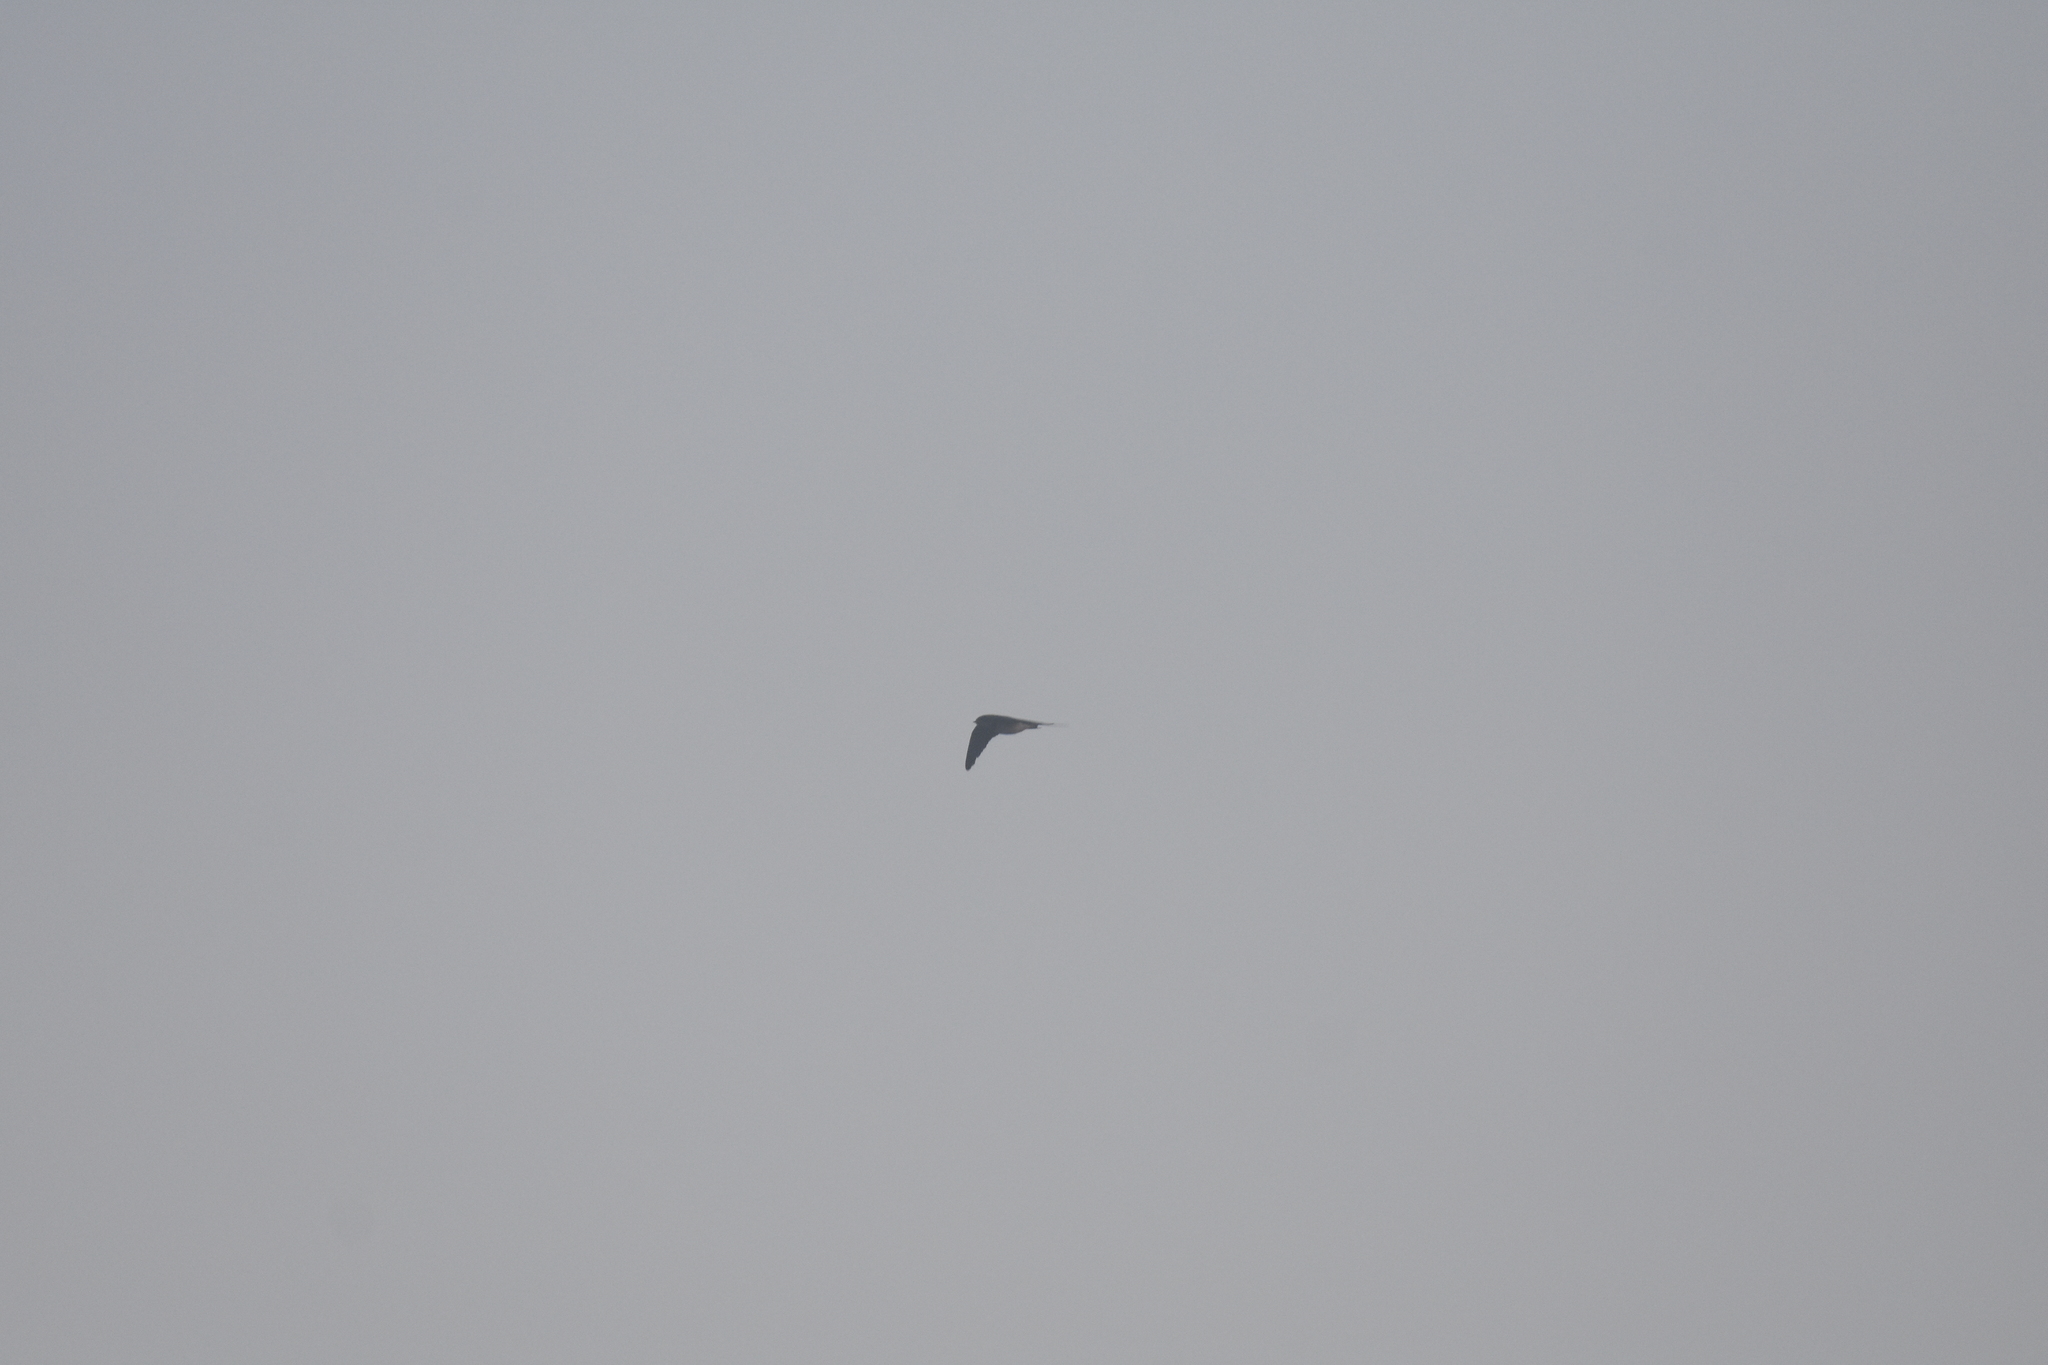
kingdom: Animalia
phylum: Chordata
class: Aves
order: Passeriformes
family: Hirundinidae
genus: Hirundo
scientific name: Hirundo rustica
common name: Barn swallow
